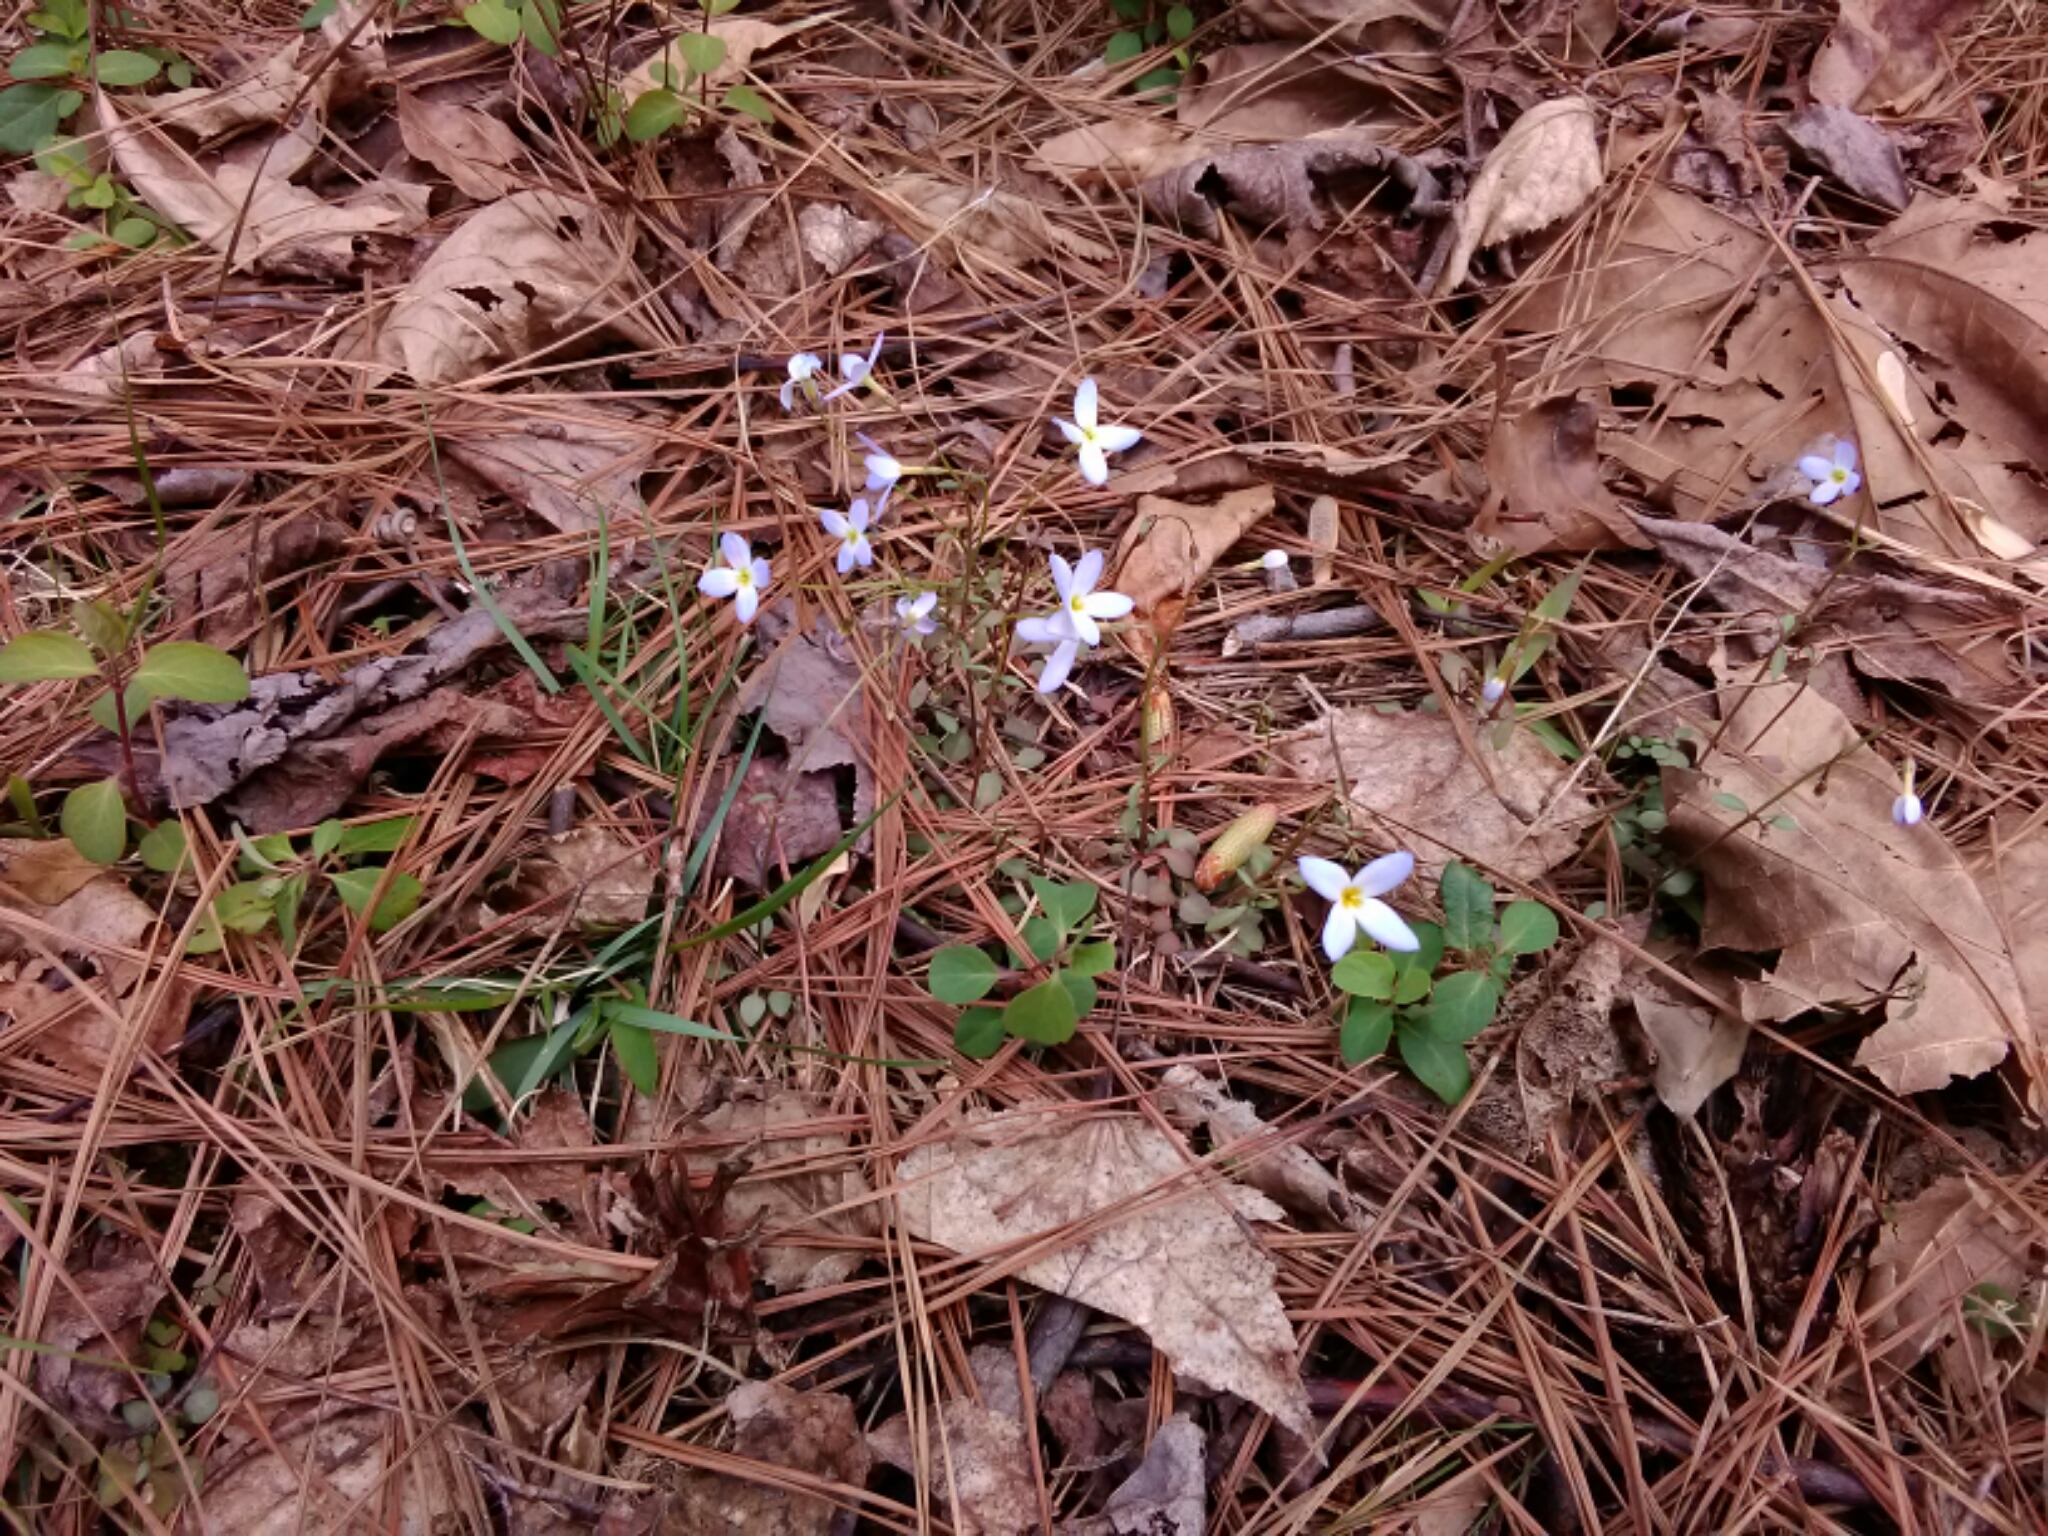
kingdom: Plantae
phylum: Tracheophyta
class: Magnoliopsida
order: Gentianales
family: Rubiaceae
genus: Houstonia
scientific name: Houstonia caerulea
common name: Bluets
